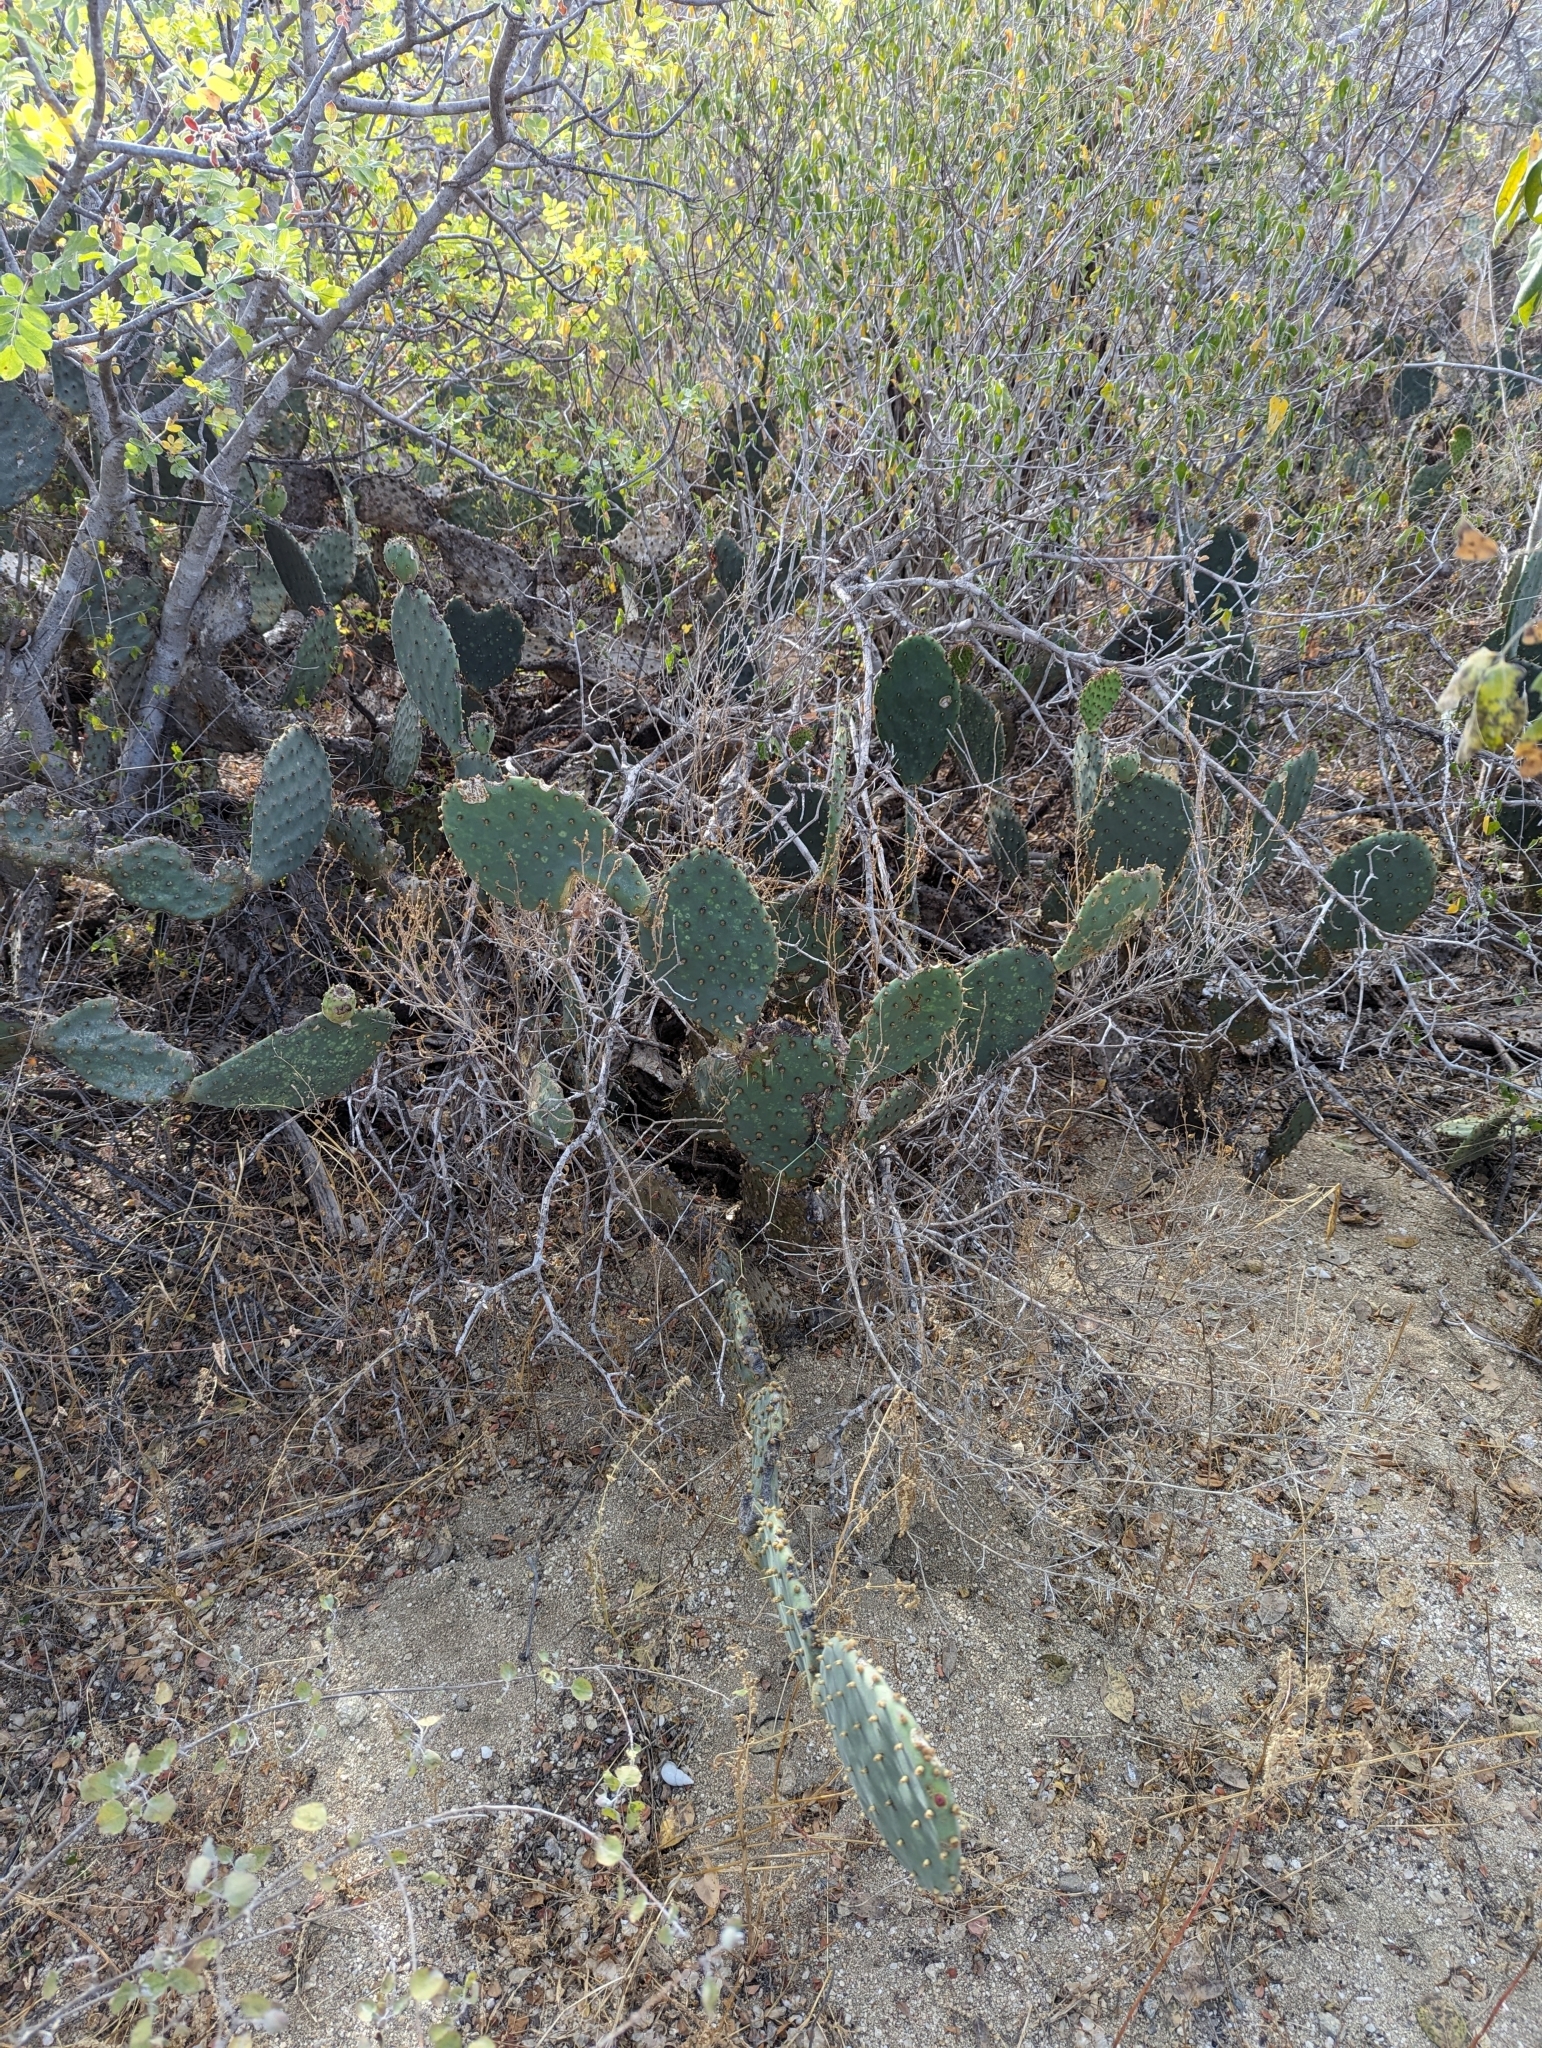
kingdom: Plantae
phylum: Tracheophyta
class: Magnoliopsida
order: Caryophyllales
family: Cactaceae
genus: Opuntia
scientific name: Opuntia caboensis
